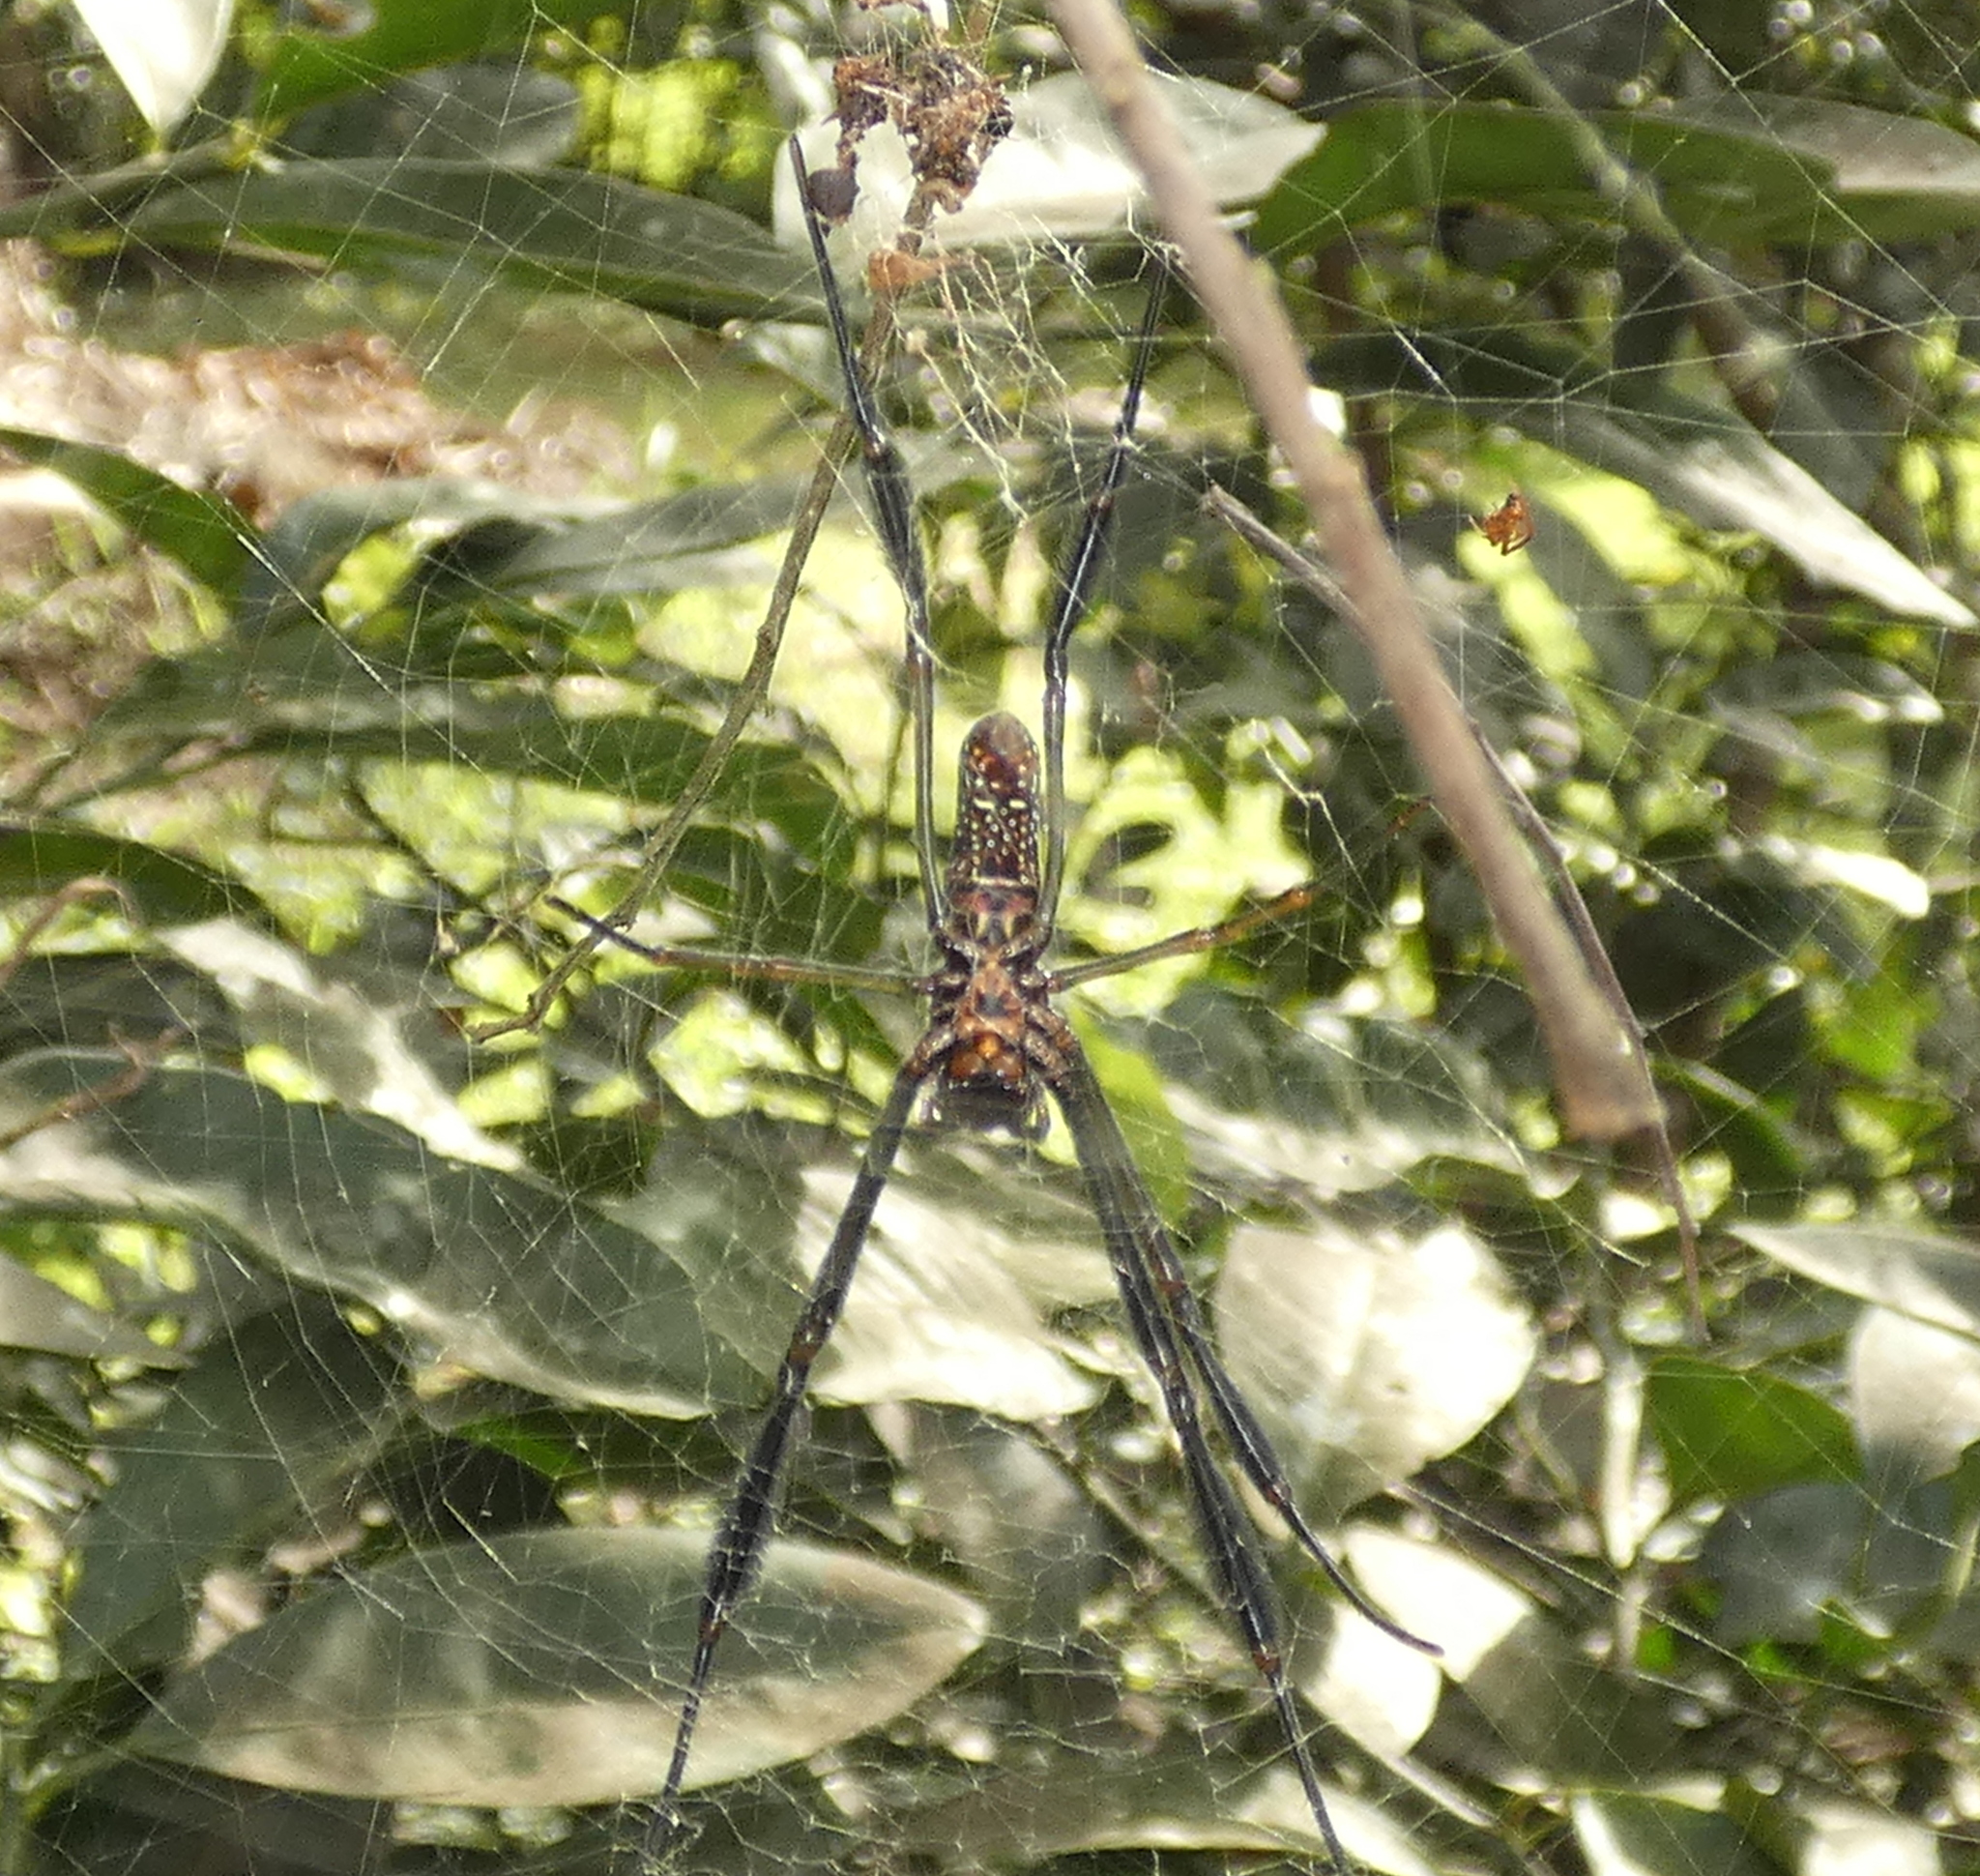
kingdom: Animalia
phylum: Arthropoda
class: Arachnida
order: Araneae
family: Araneidae
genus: Trichonephila
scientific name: Trichonephila clavipes
